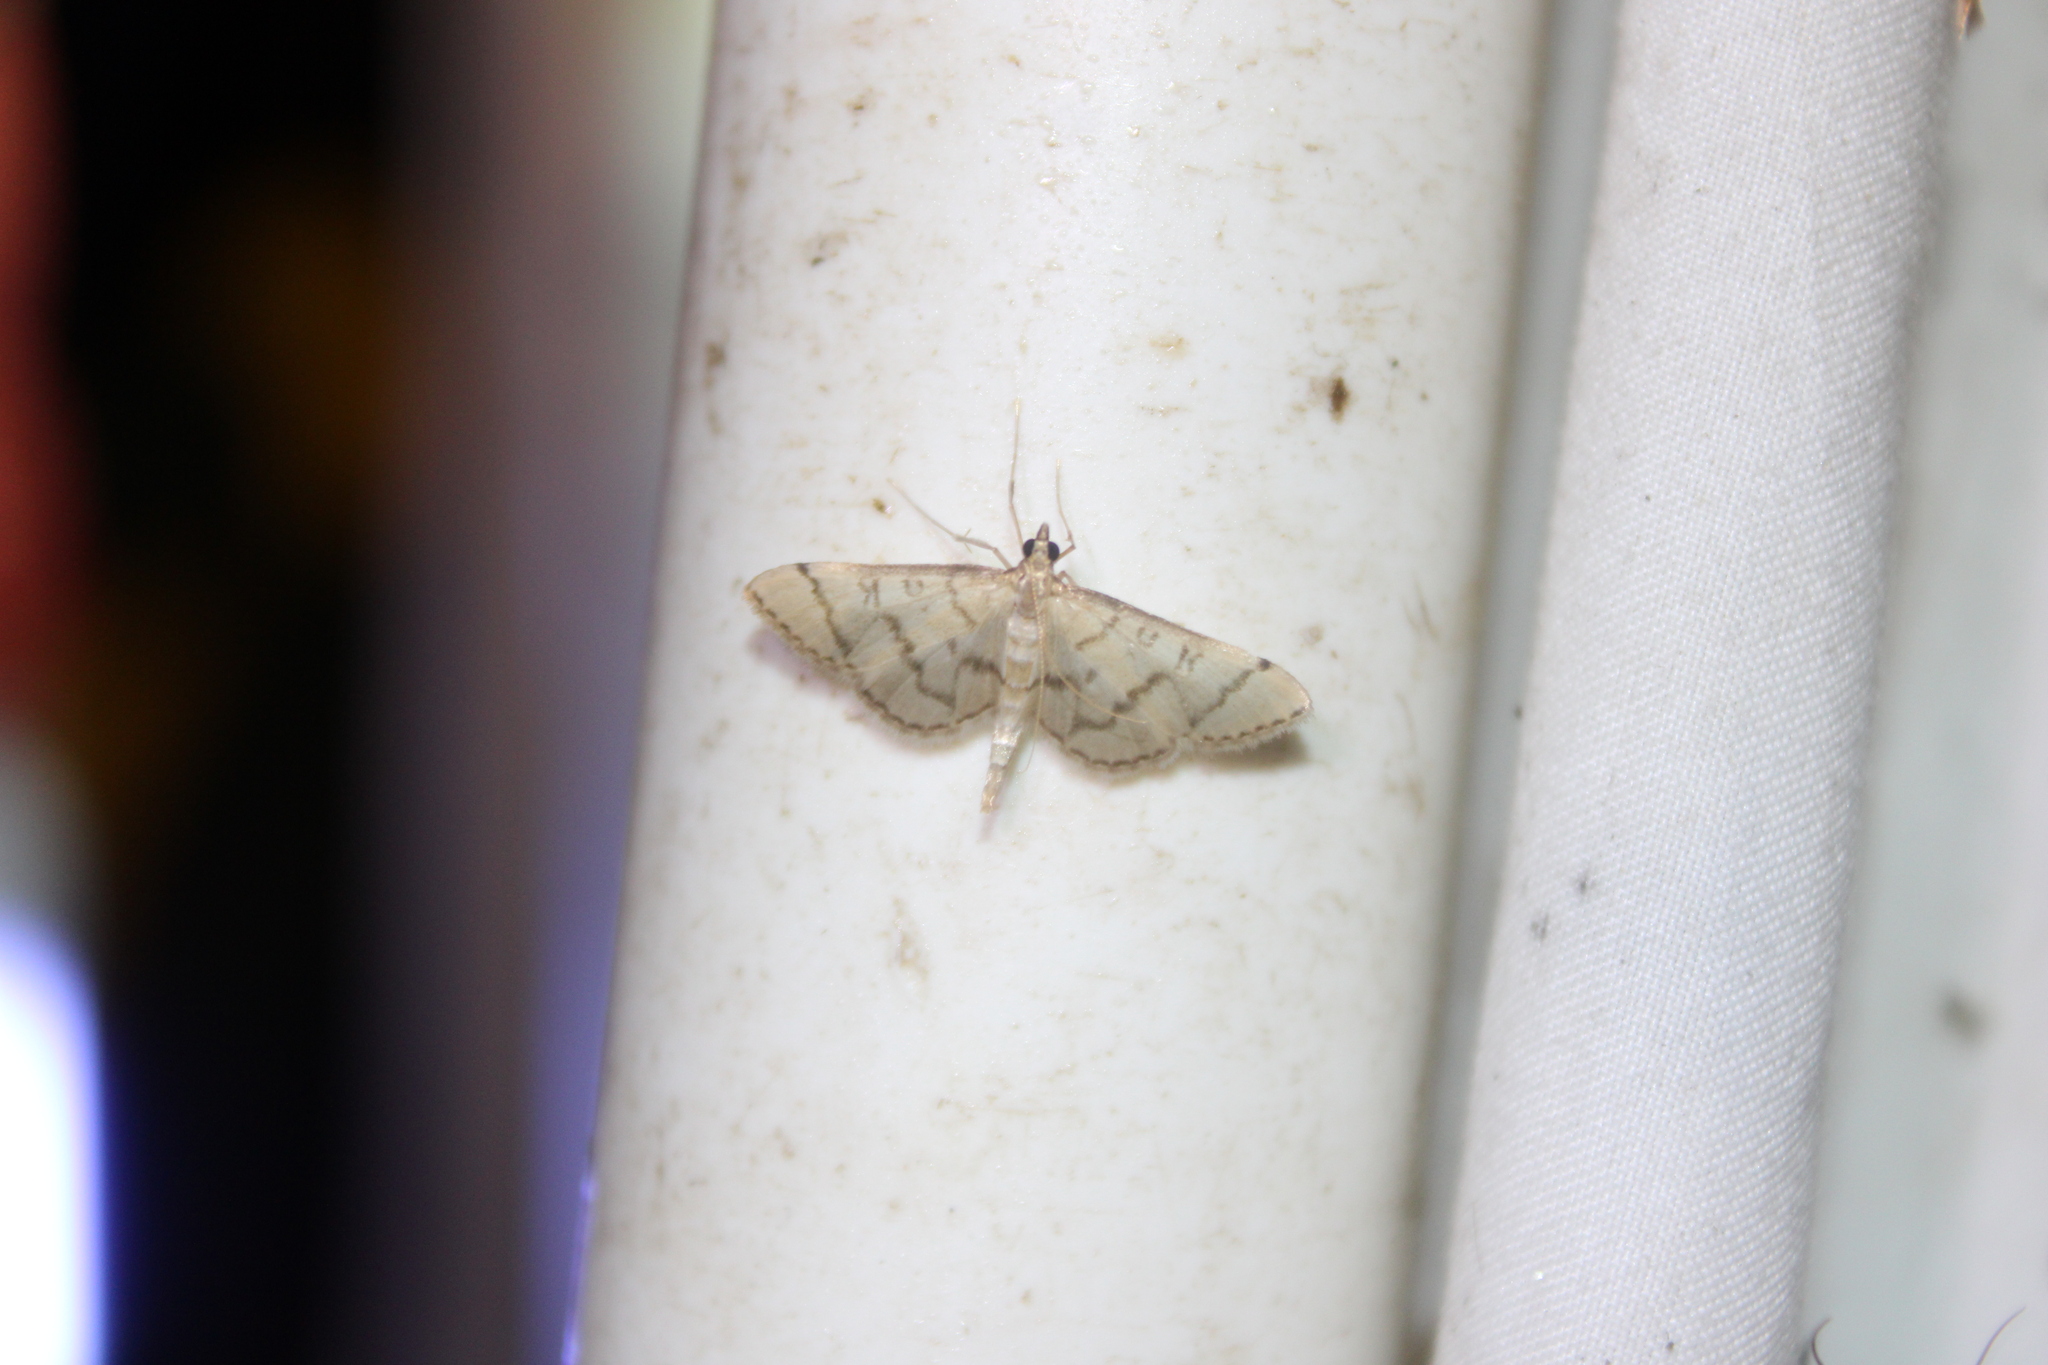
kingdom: Animalia
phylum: Arthropoda
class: Insecta
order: Lepidoptera
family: Crambidae
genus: Lamprosema
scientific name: Lamprosema Blepharomastix ranalis
